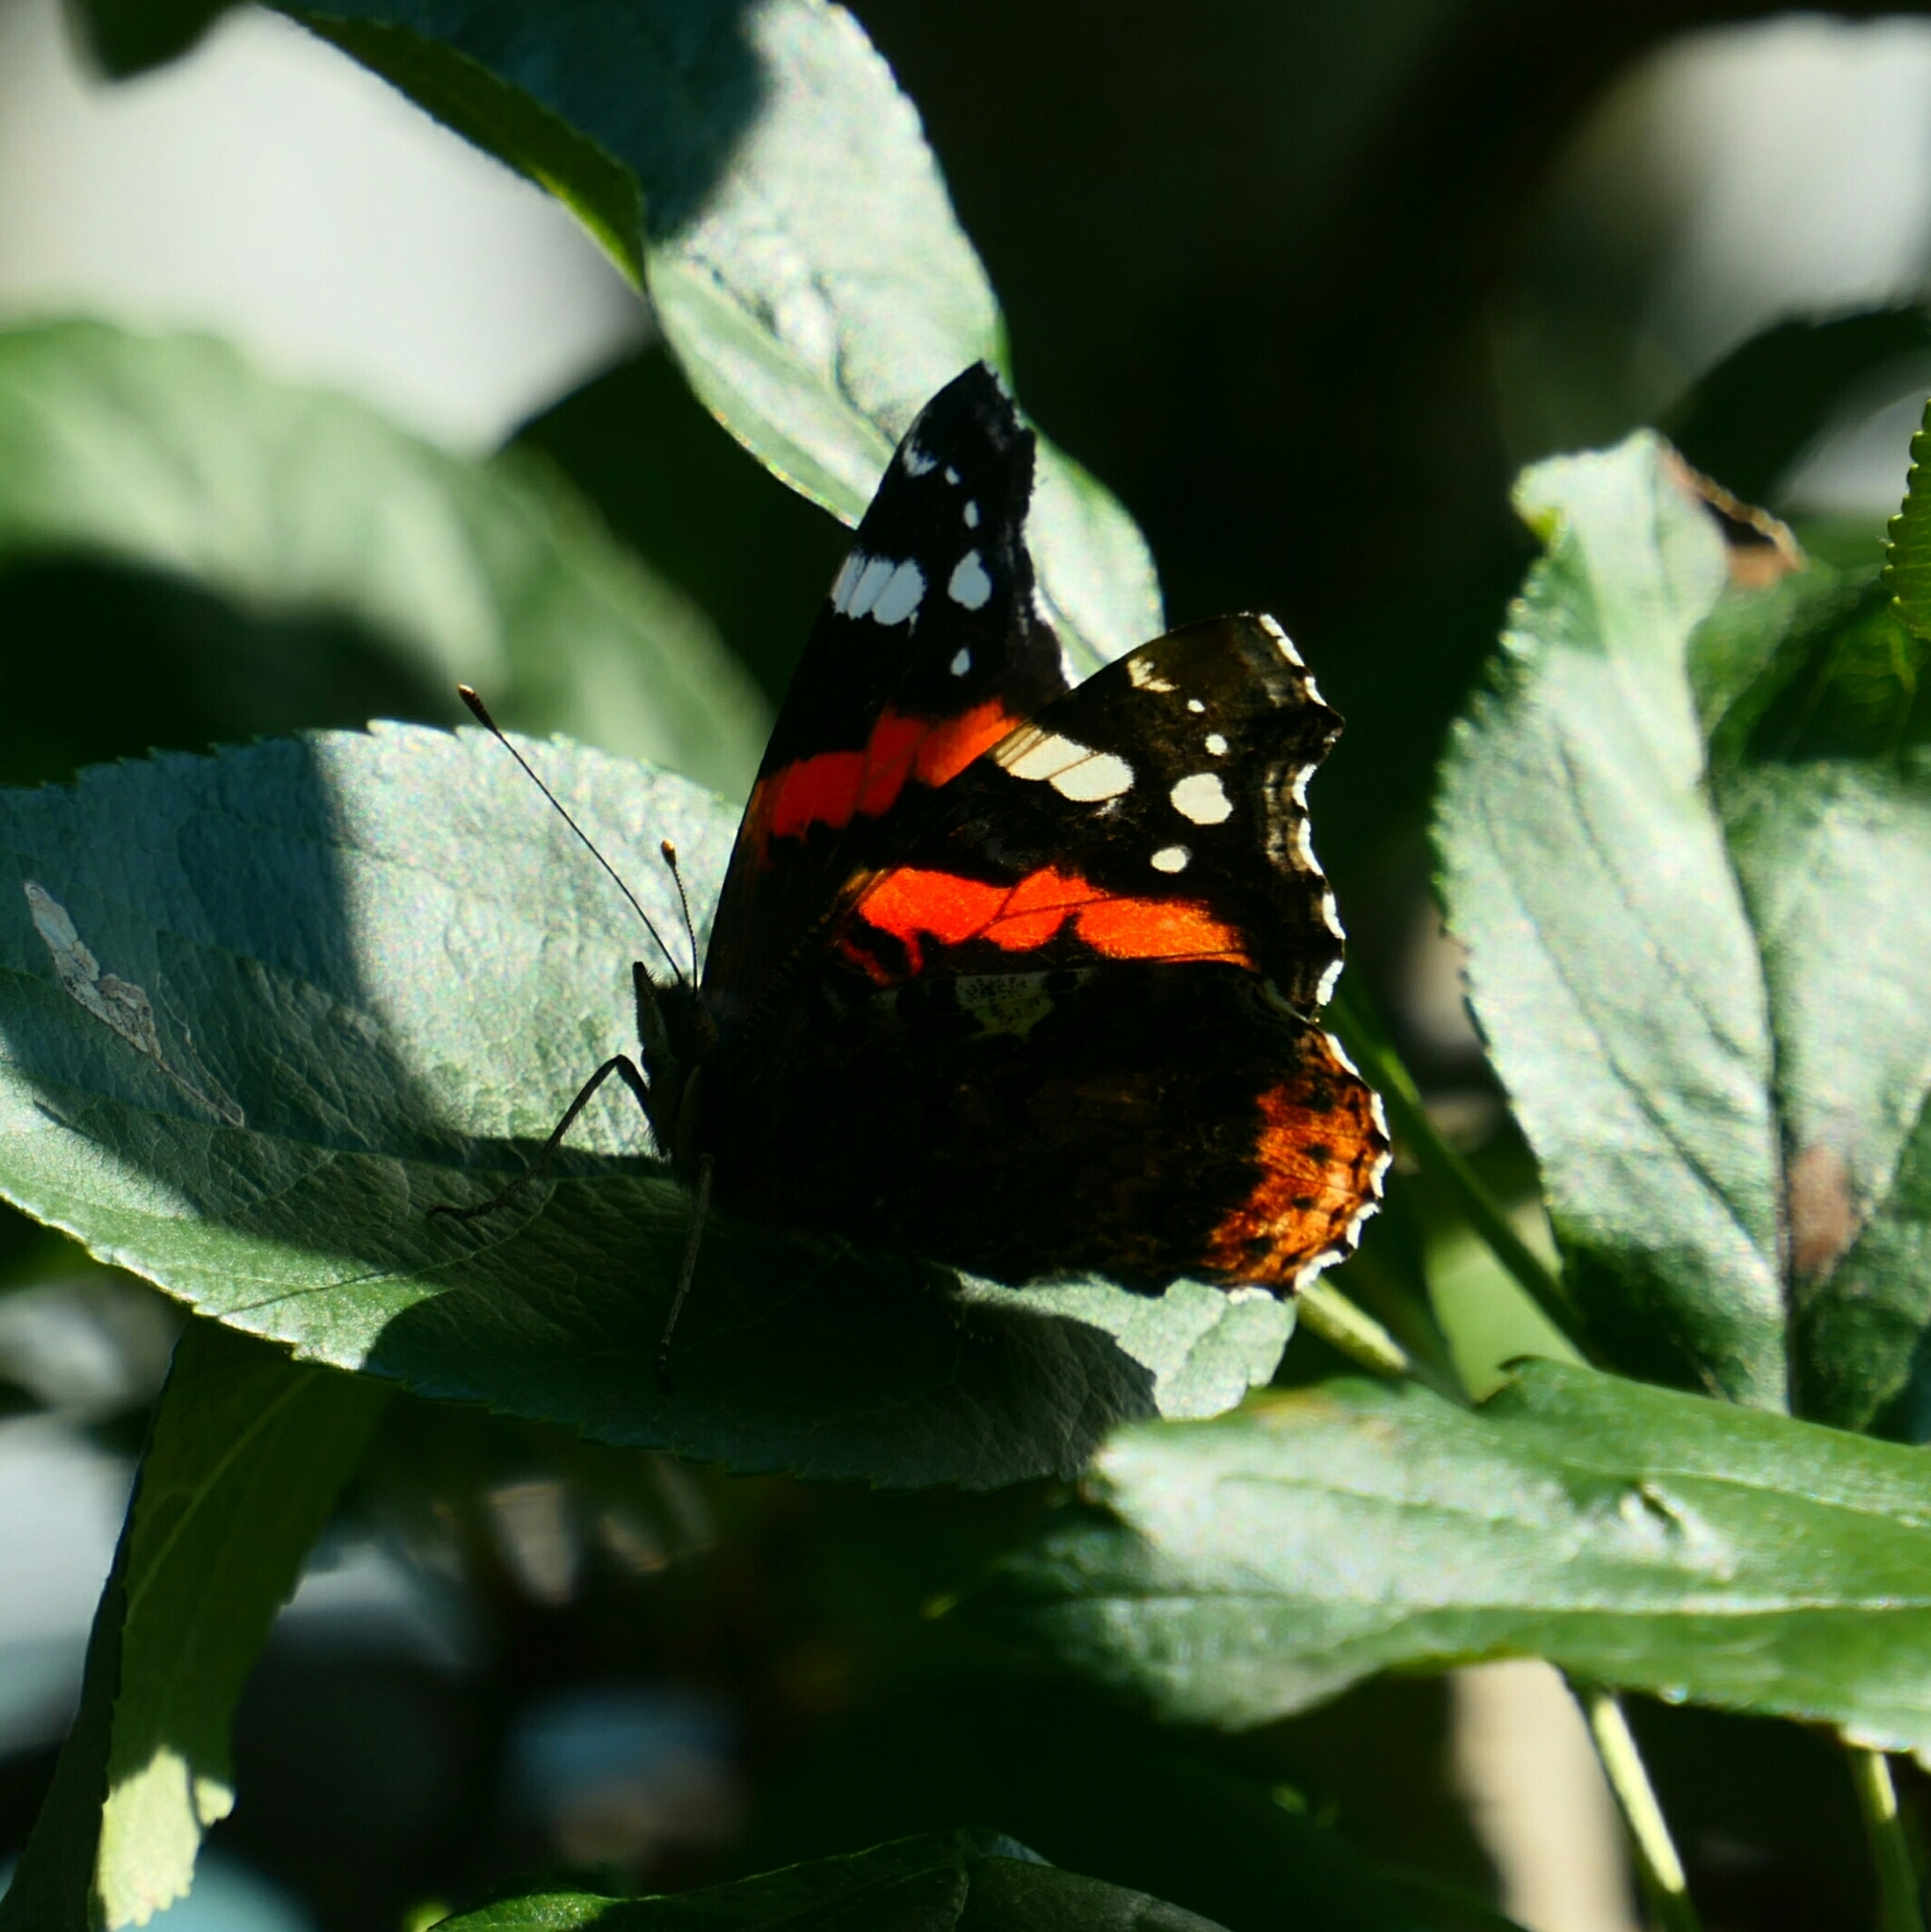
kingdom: Animalia
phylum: Arthropoda
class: Insecta
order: Lepidoptera
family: Nymphalidae
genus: Vanessa
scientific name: Vanessa atalanta
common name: Red admiral
